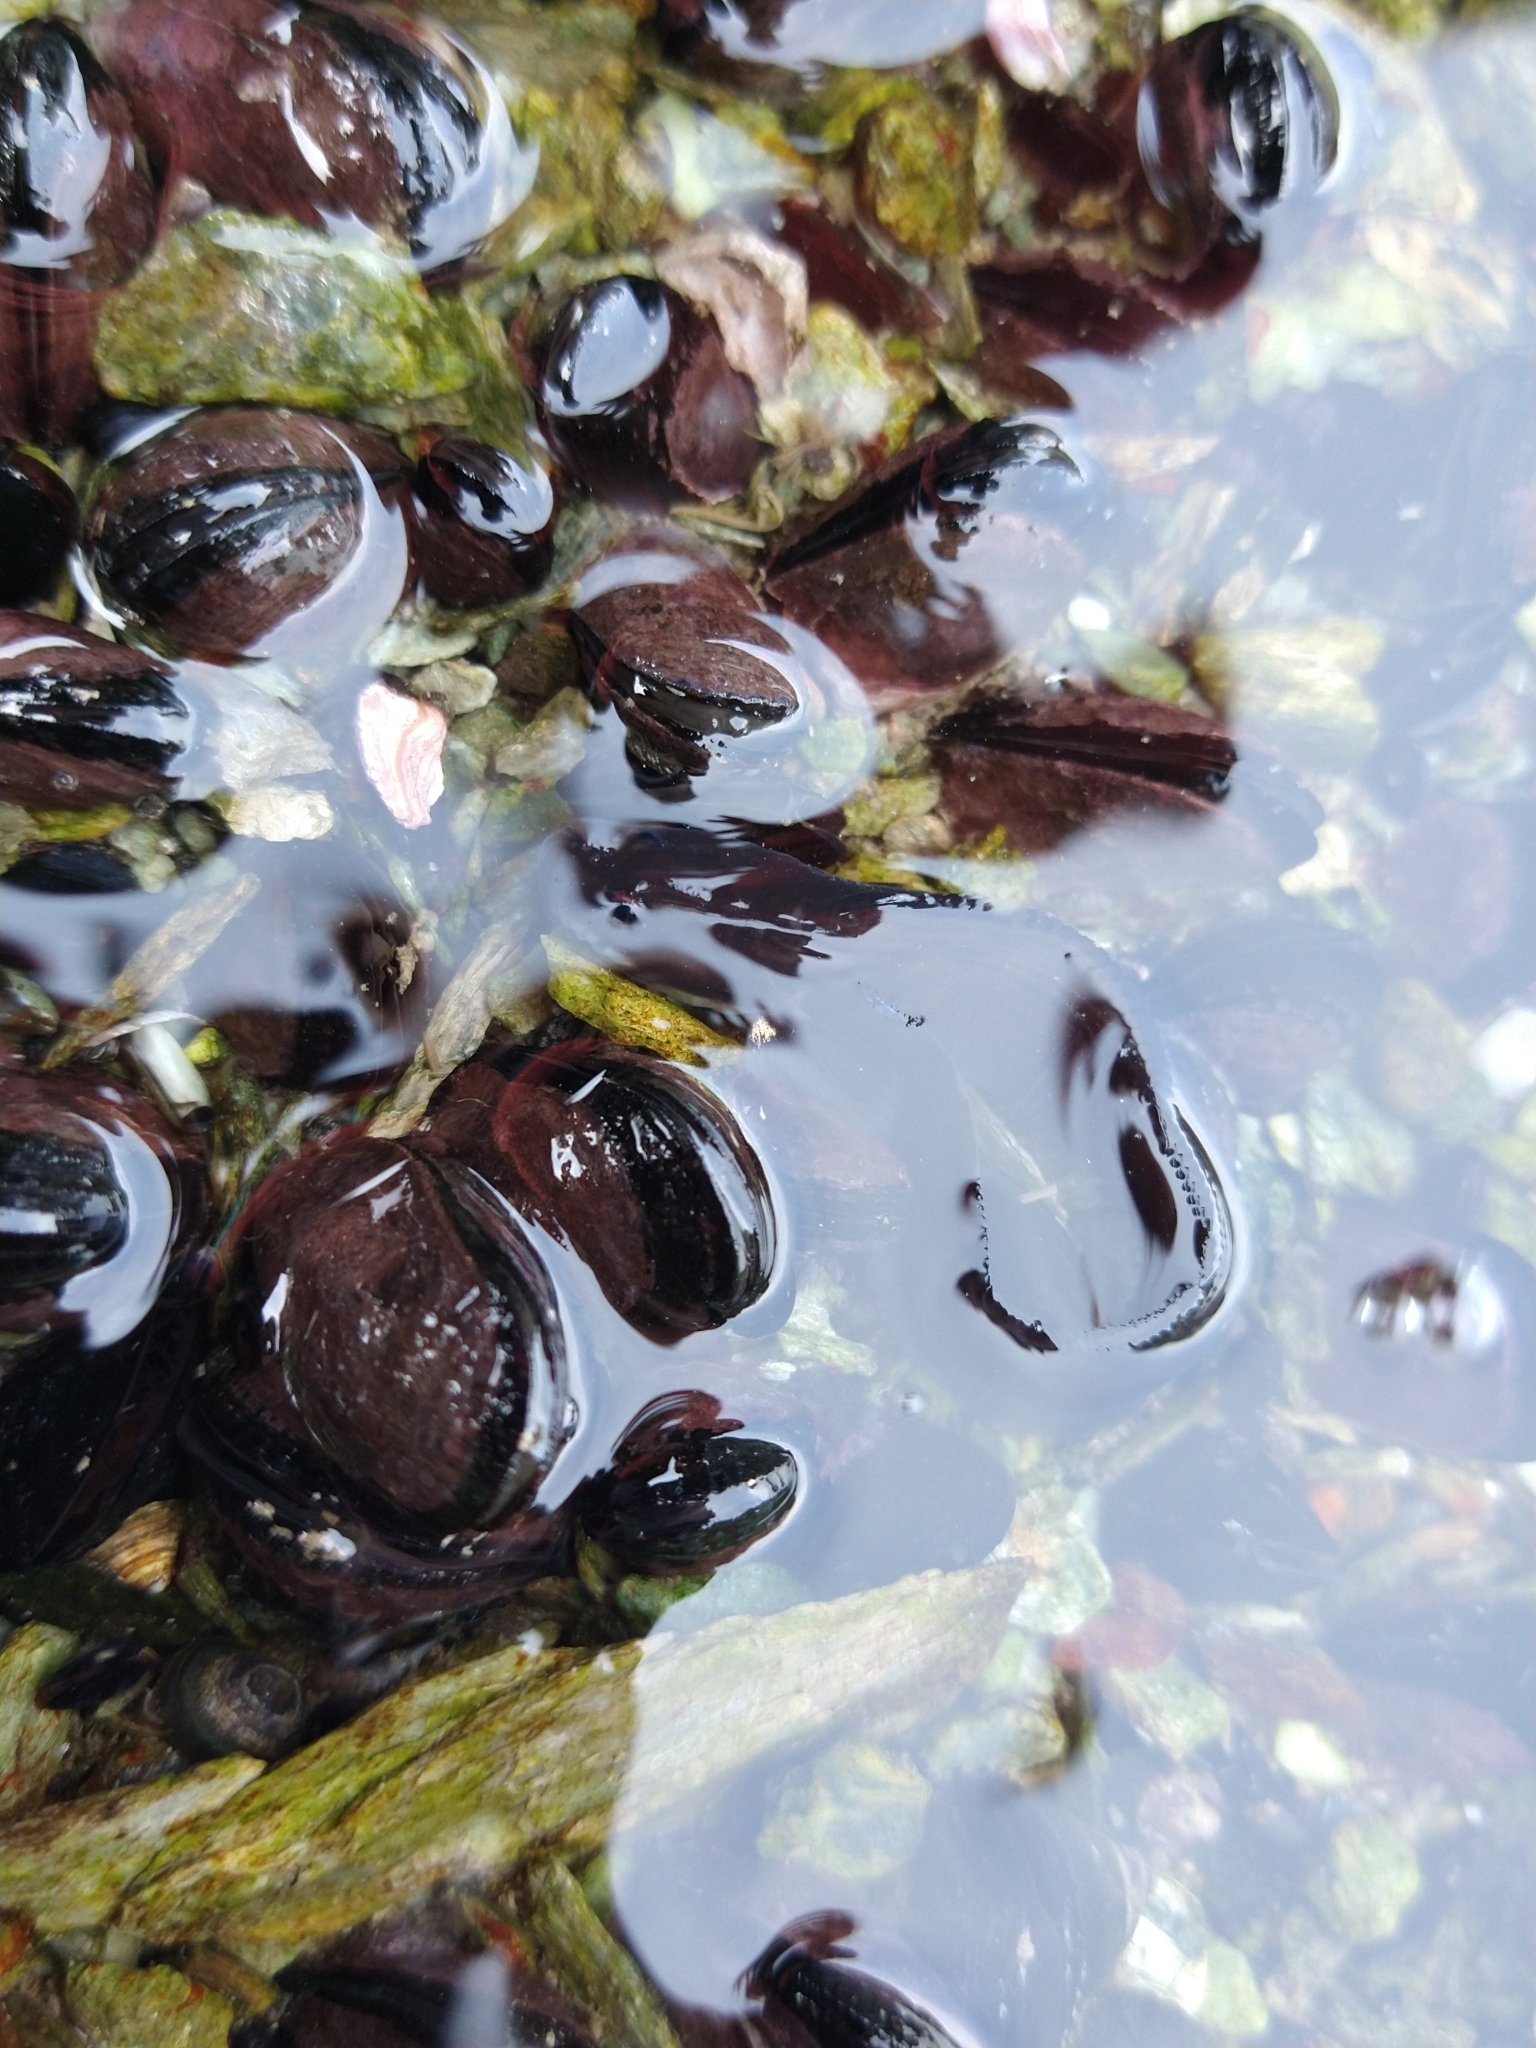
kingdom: Animalia
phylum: Chordata
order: Perciformes
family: Zoarcidae
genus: Crossostomus
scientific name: Crossostomus chilensis
